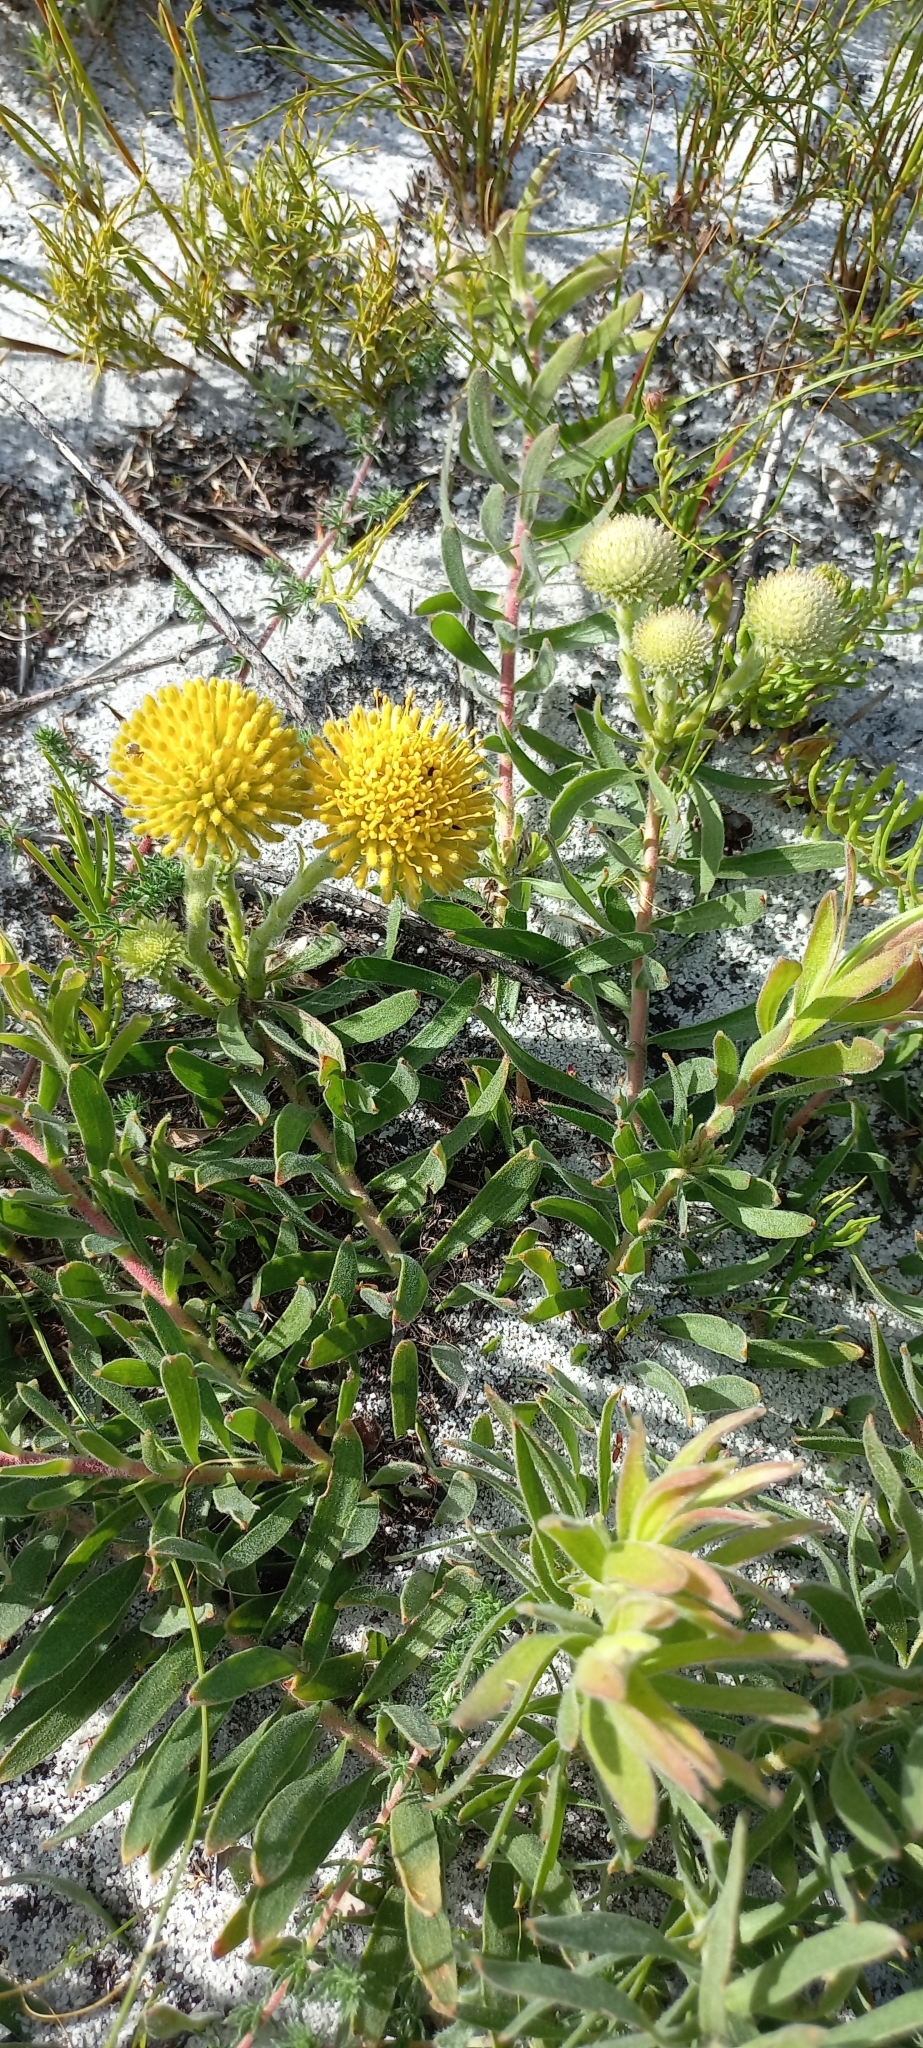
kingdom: Plantae
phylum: Tracheophyta
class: Magnoliopsida
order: Proteales
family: Proteaceae
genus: Leucospermum
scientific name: Leucospermum prostratum
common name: Yellow-trailing pincushion
